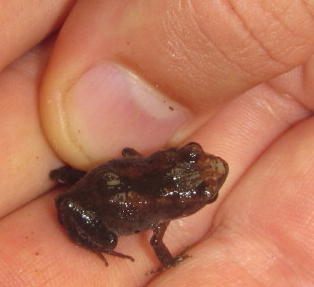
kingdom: Animalia
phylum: Chordata
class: Amphibia
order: Anura
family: Arthroleptidae
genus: Arthroleptis
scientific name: Arthroleptis wahlbergii
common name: Bush squeaker
